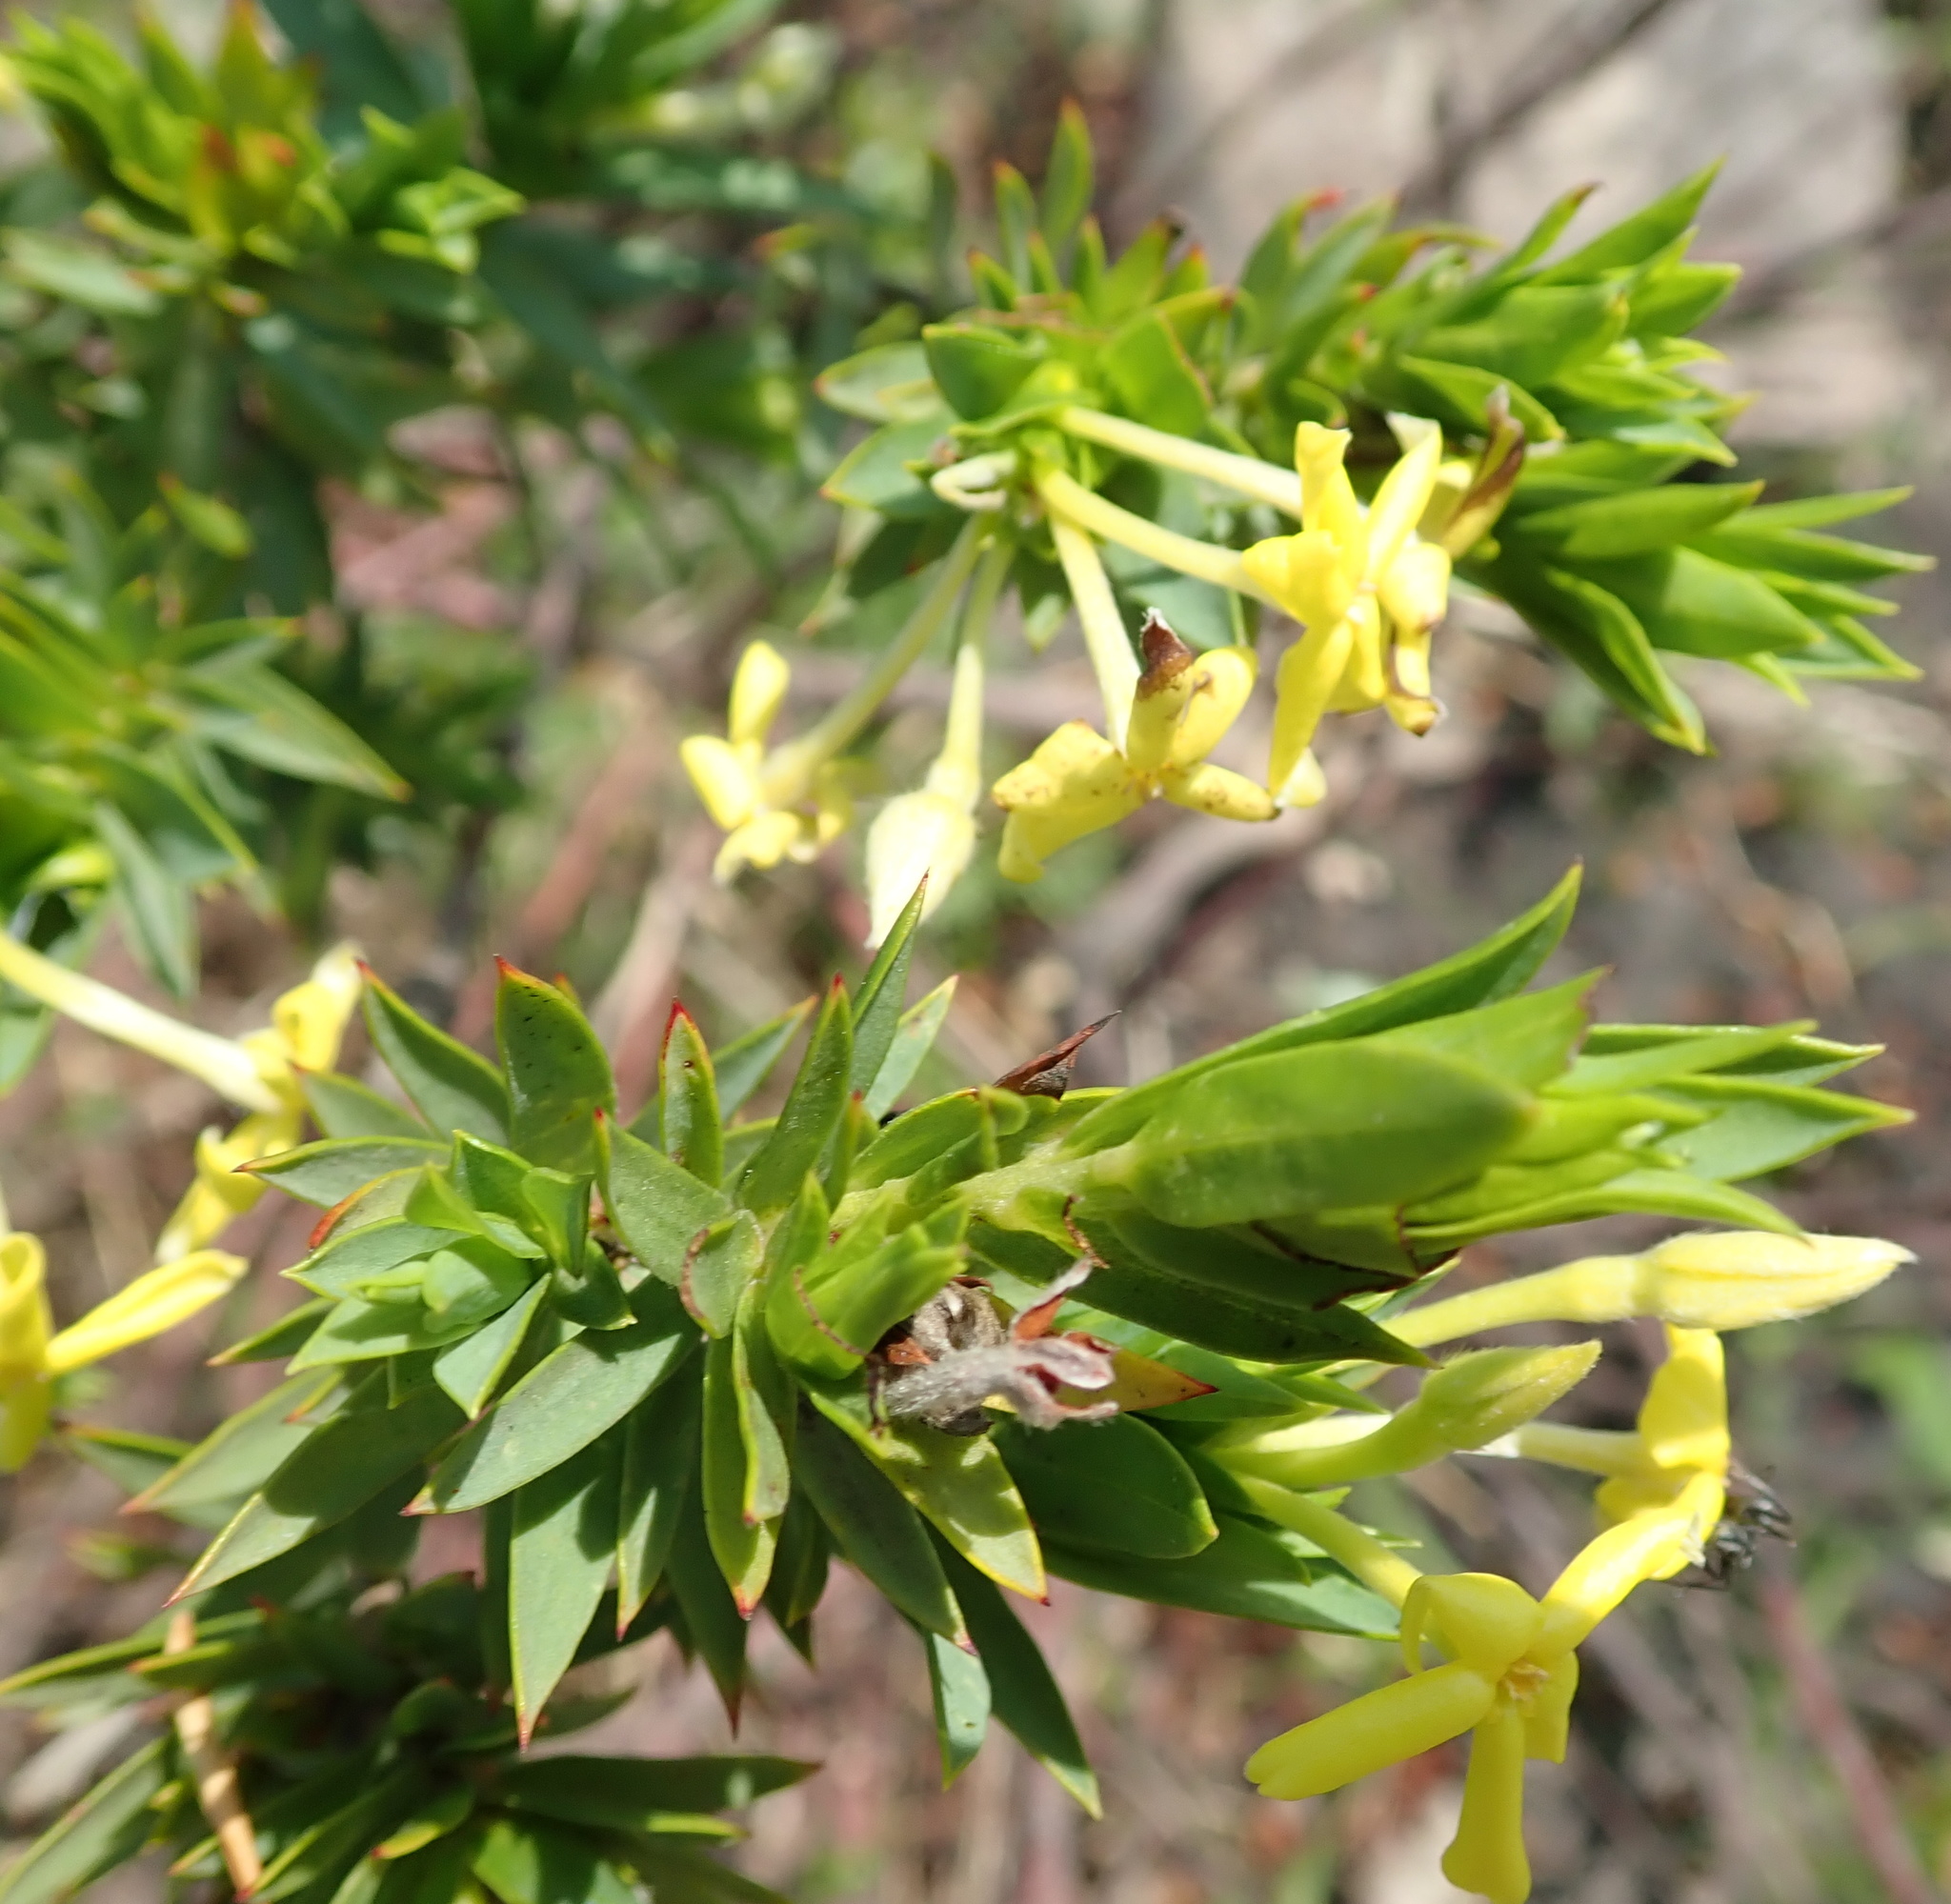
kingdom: Plantae
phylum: Tracheophyta
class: Magnoliopsida
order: Malvales
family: Thymelaeaceae
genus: Gnidia
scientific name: Gnidia triplinervis
